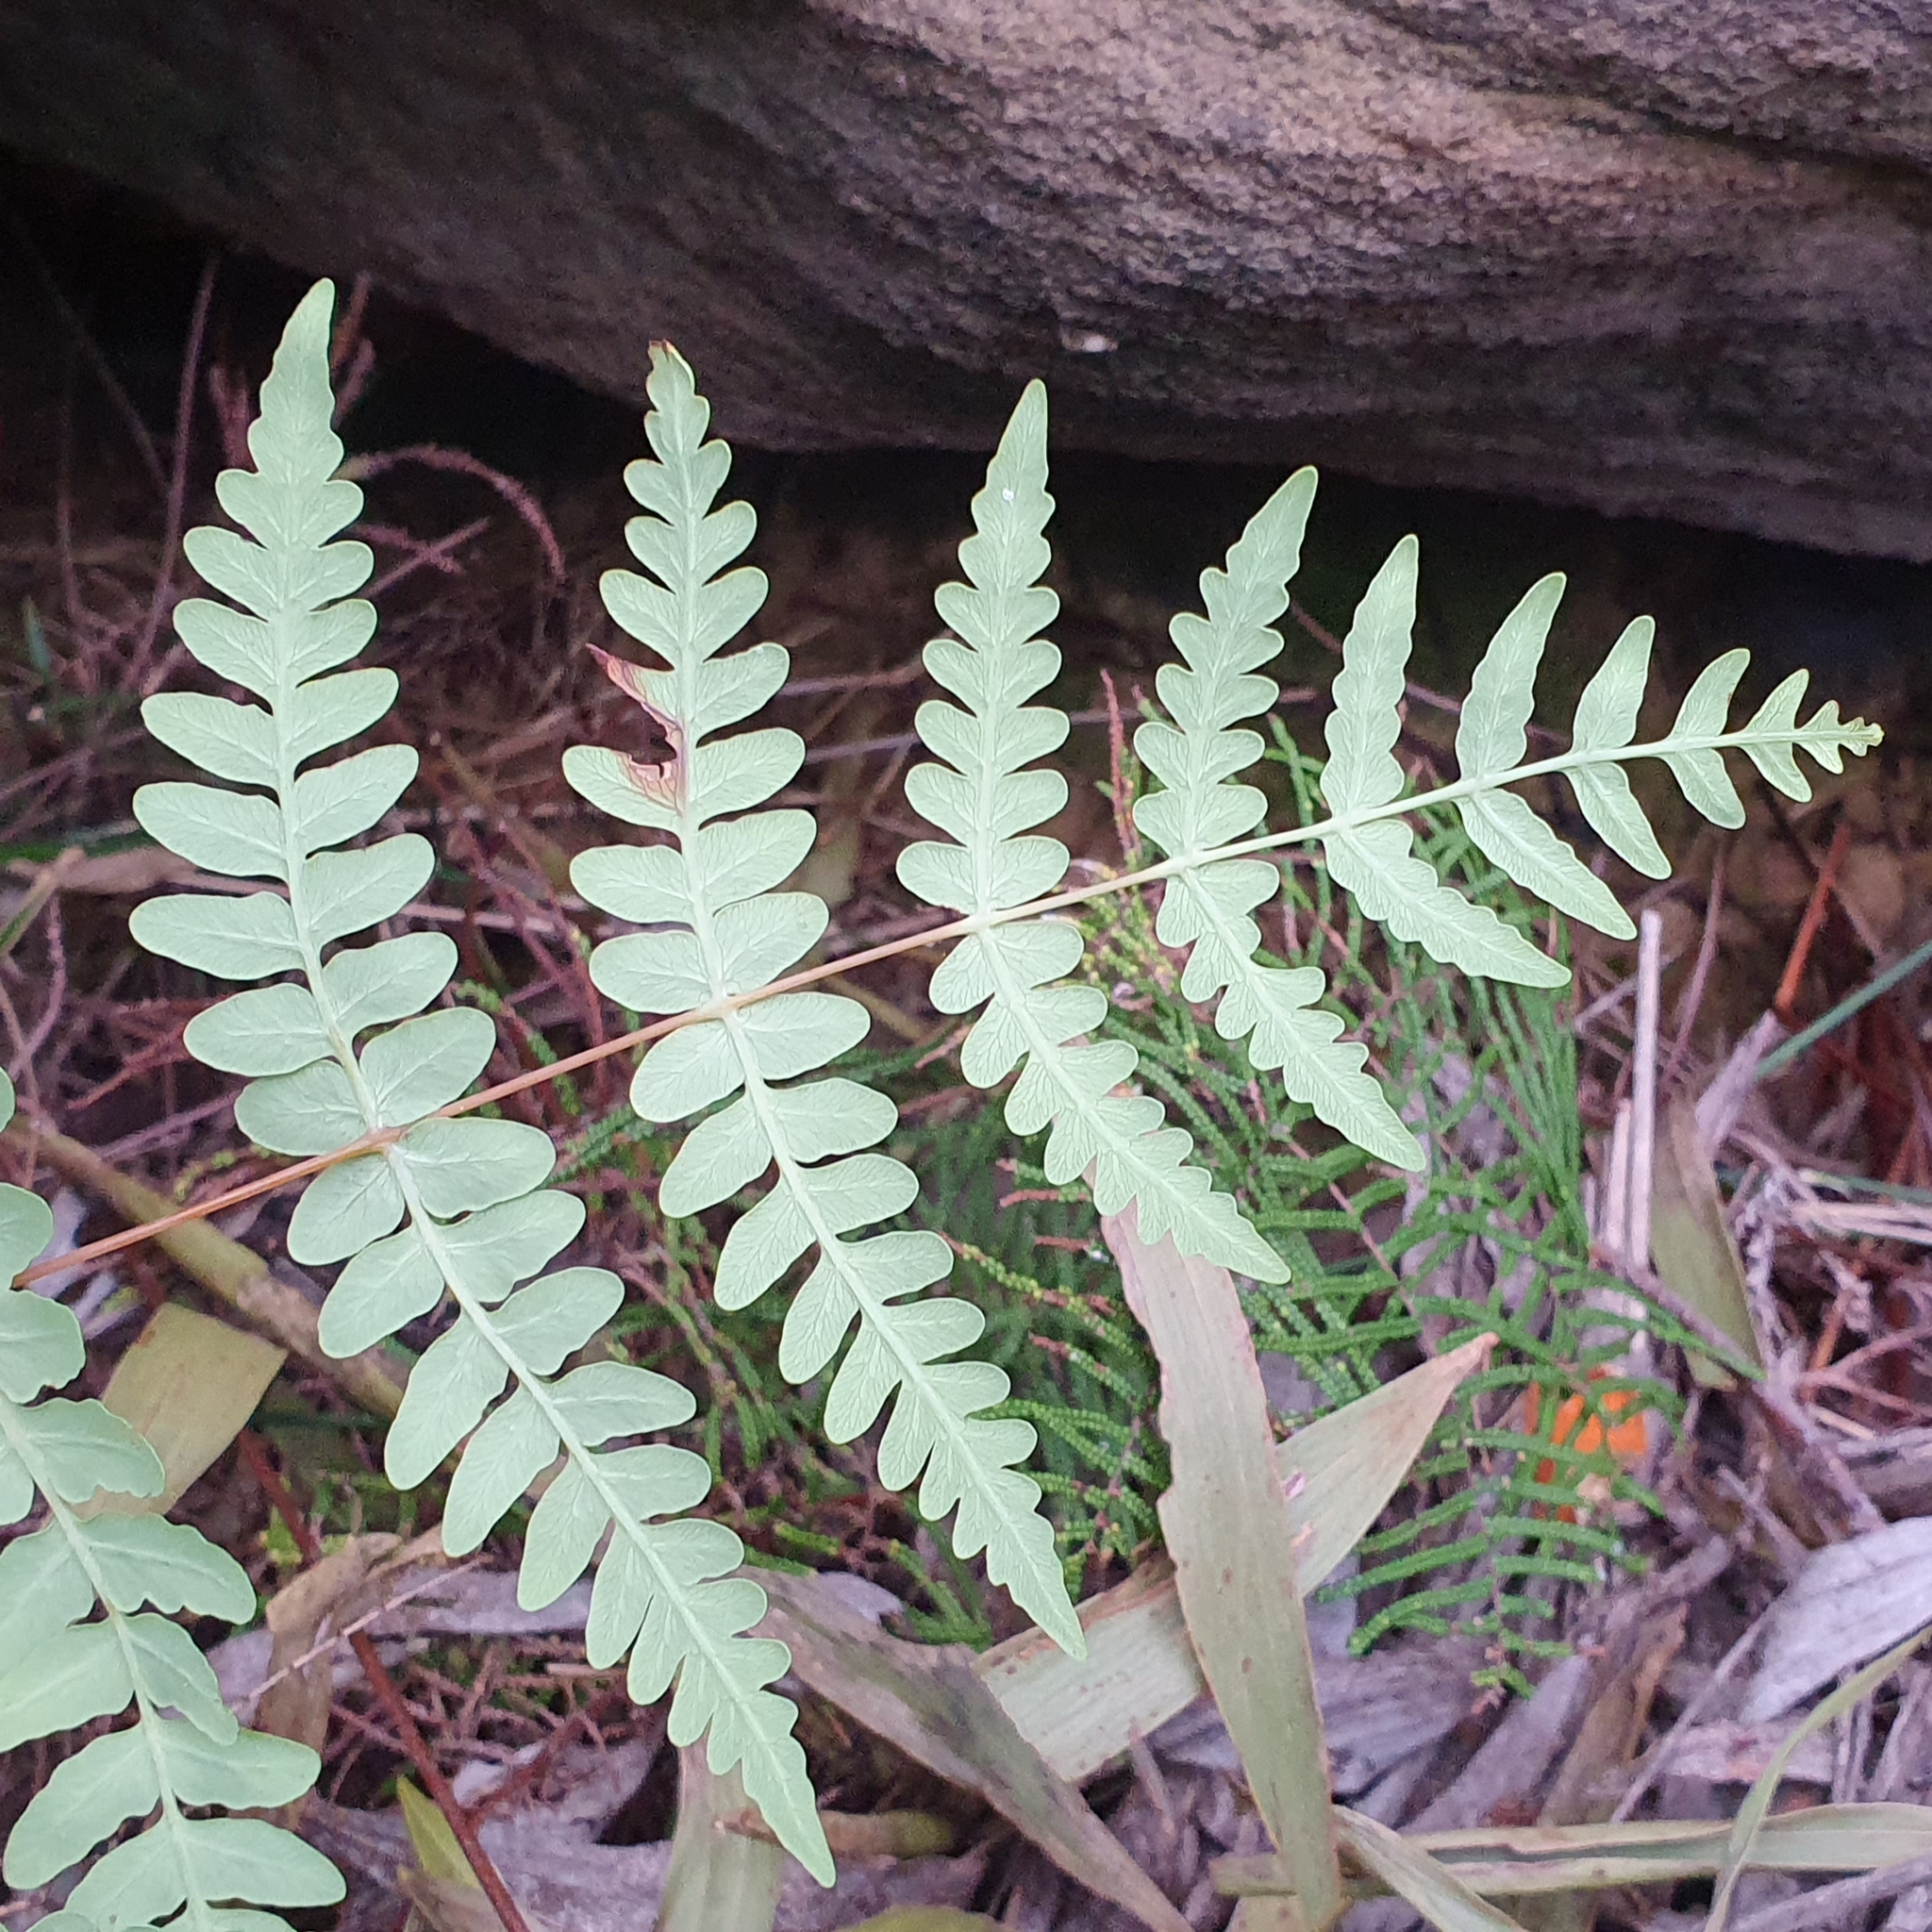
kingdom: Plantae
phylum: Tracheophyta
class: Polypodiopsida
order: Polypodiales
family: Dennstaedtiaceae
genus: Histiopteris
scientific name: Histiopteris incisa
